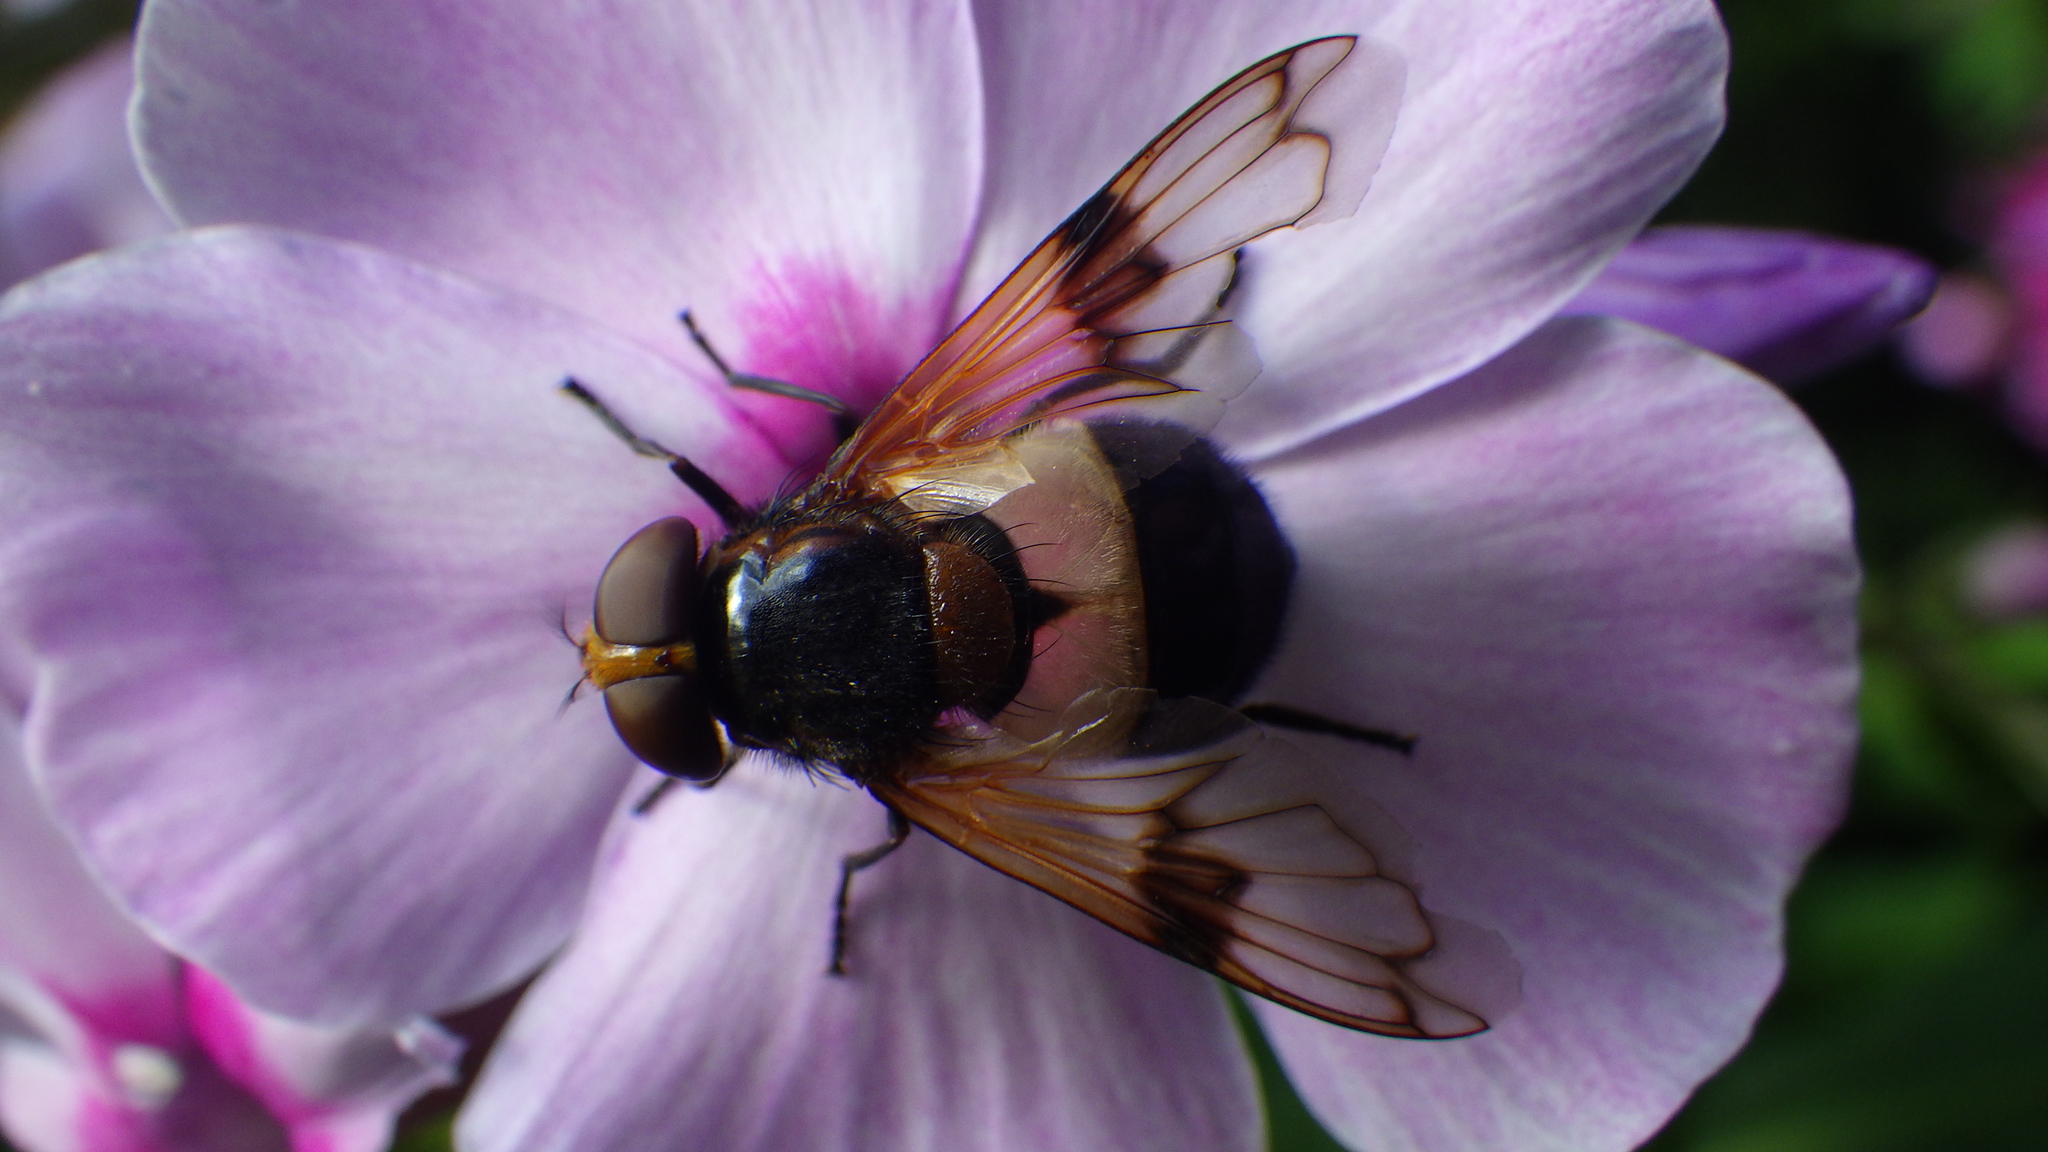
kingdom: Animalia
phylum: Arthropoda
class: Insecta
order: Diptera
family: Syrphidae
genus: Volucella
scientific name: Volucella pellucens
